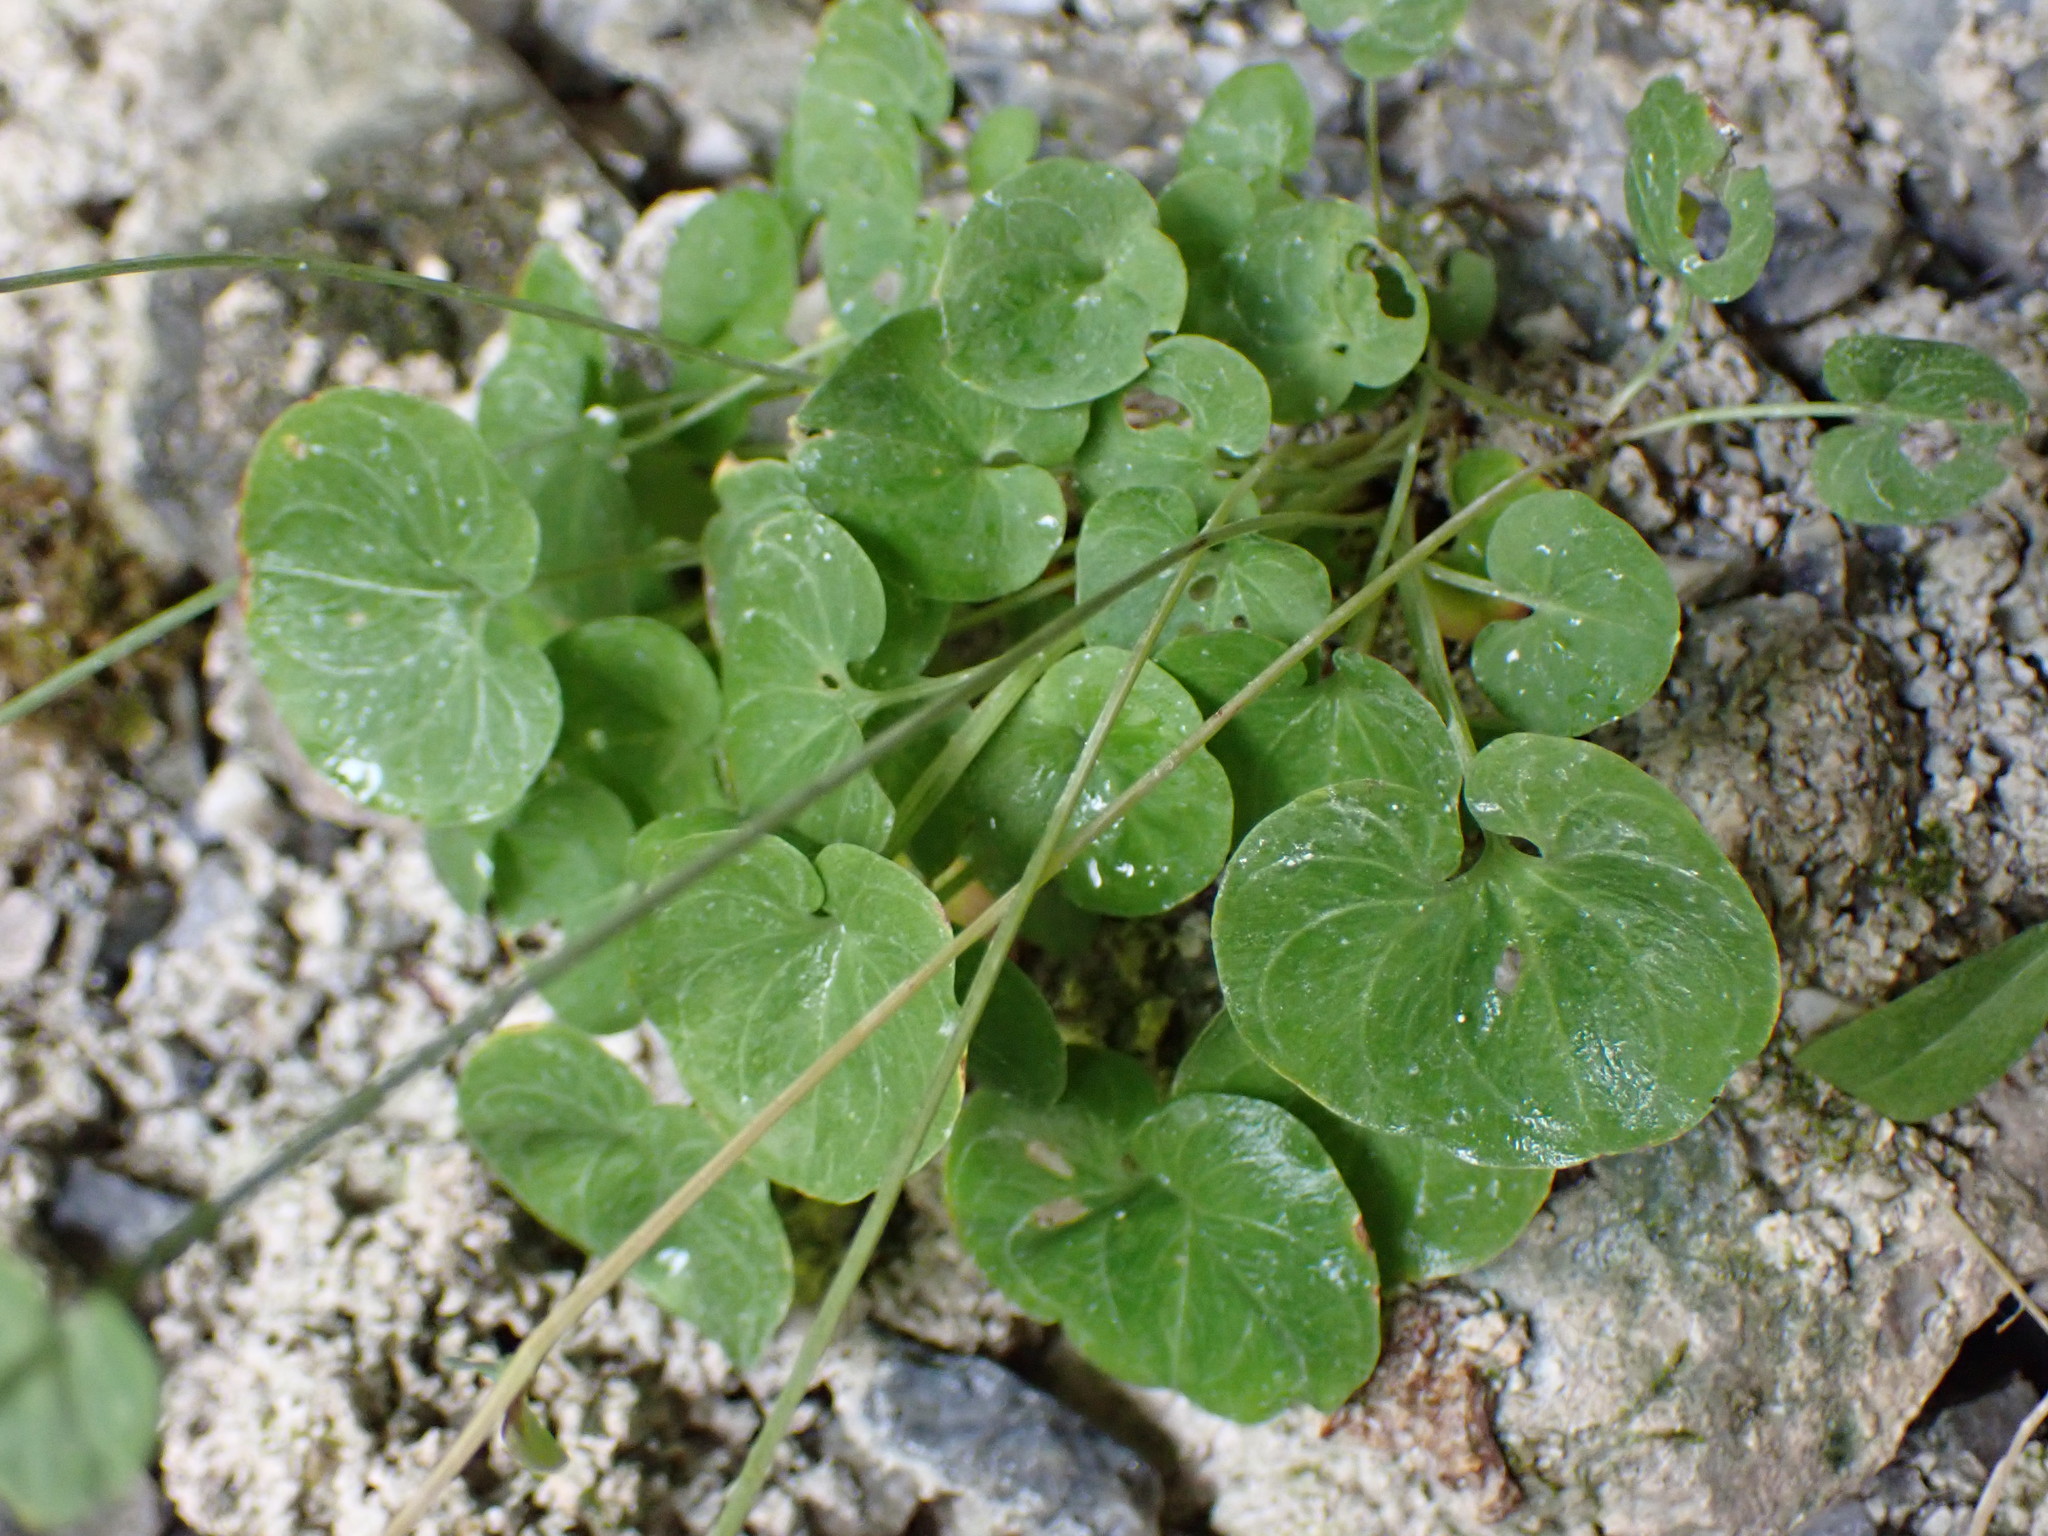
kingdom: Plantae
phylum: Tracheophyta
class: Magnoliopsida
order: Celastrales
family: Parnassiaceae
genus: Parnassia
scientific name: Parnassia fimbriata
